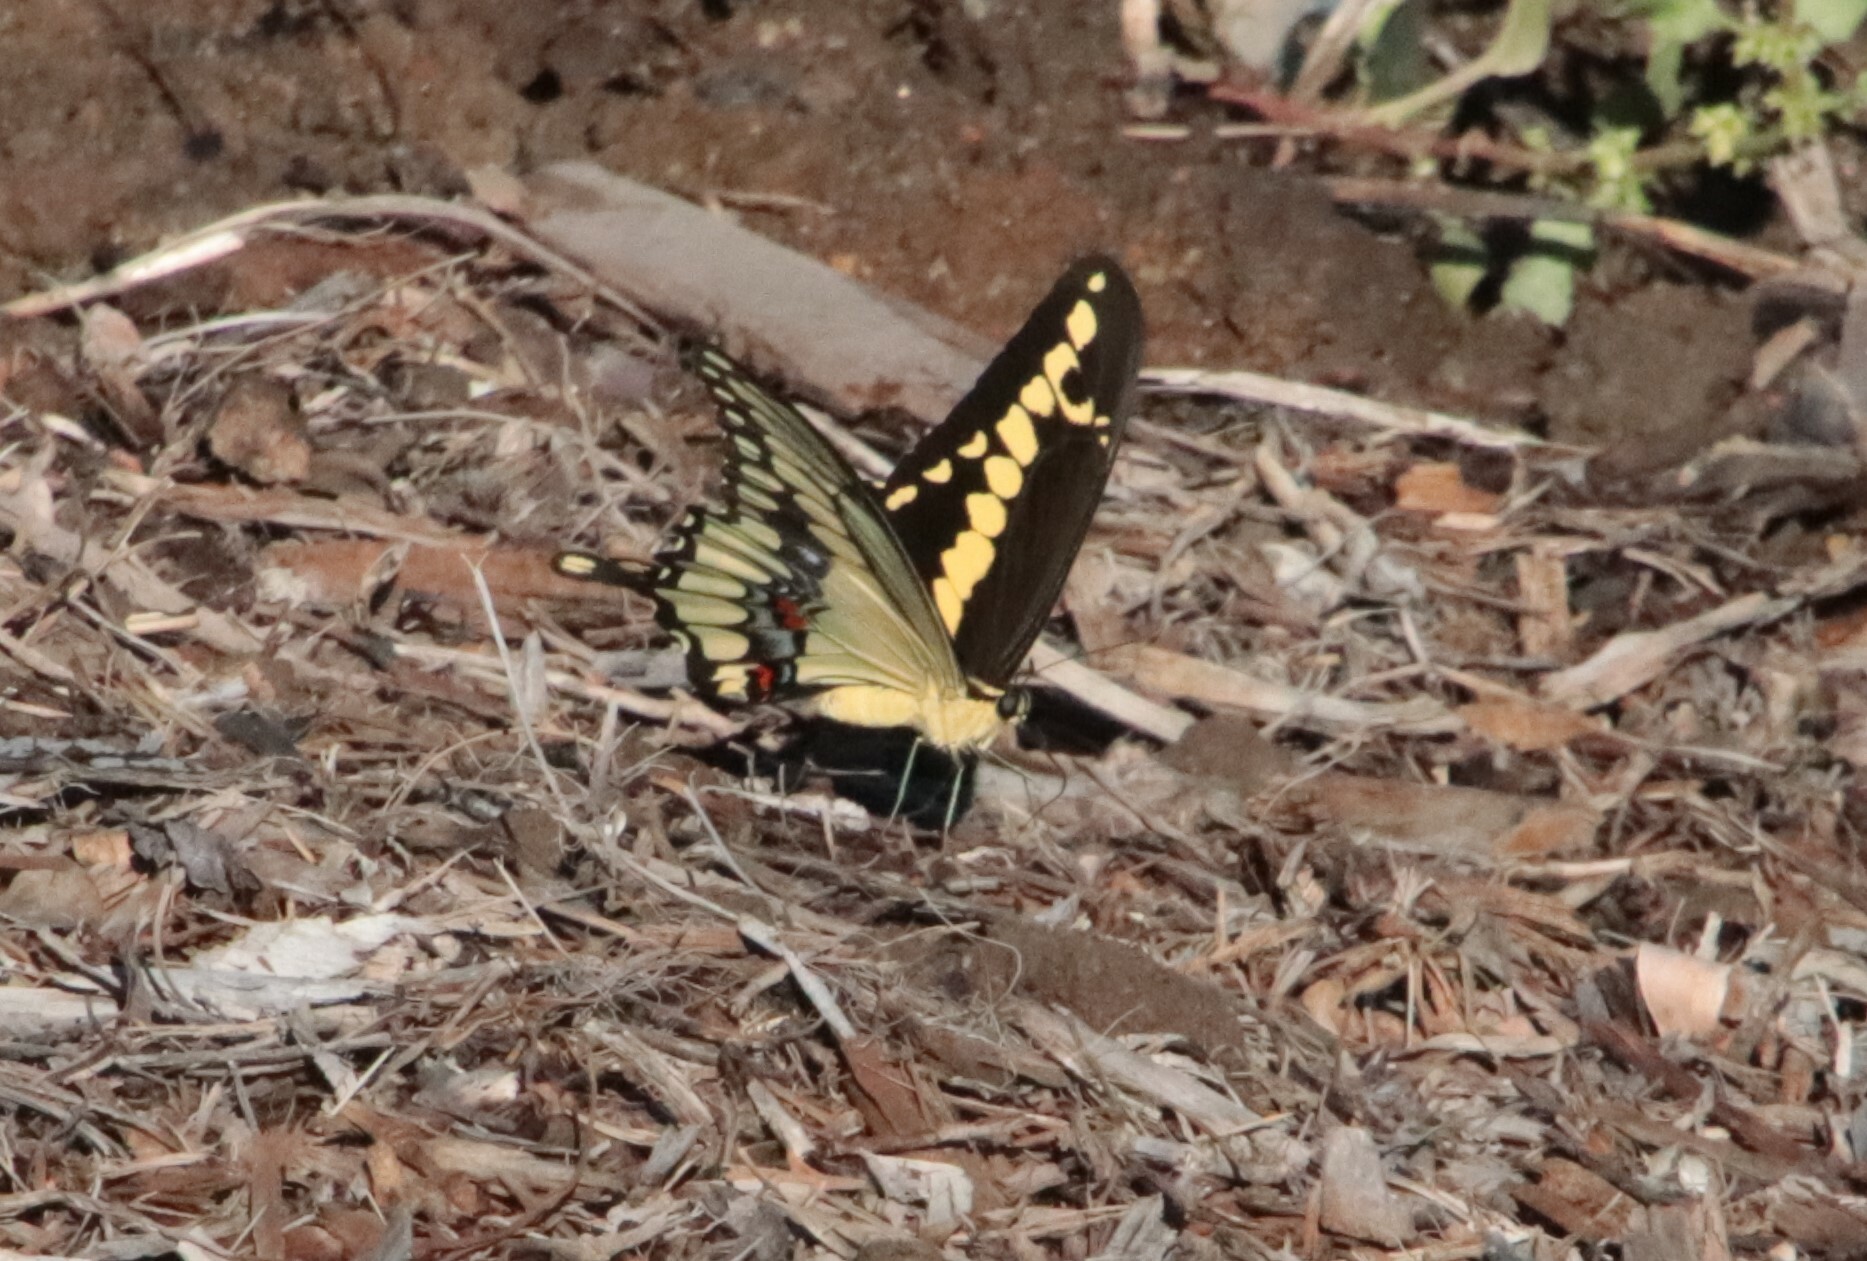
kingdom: Animalia
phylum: Arthropoda
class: Insecta
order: Lepidoptera
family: Papilionidae
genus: Papilio
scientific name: Papilio rumiko
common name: Western giant swallowtail
